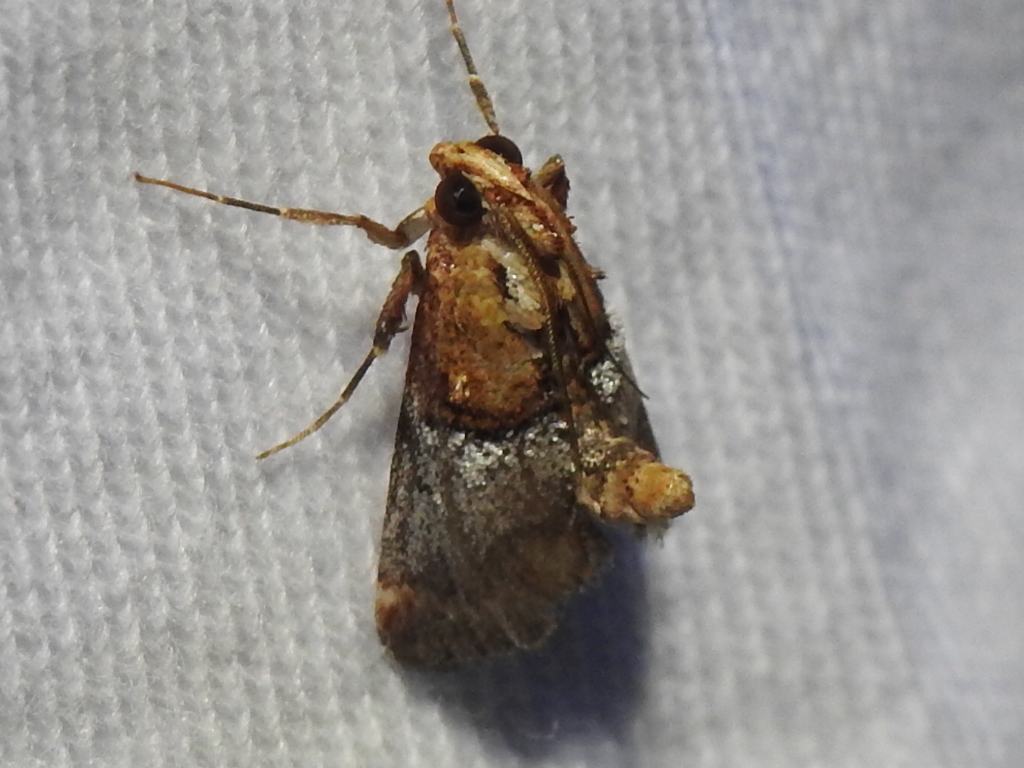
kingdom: Animalia
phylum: Arthropoda
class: Insecta
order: Lepidoptera
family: Pyralidae
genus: Cacozelia
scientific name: Cacozelia basiochrealis
